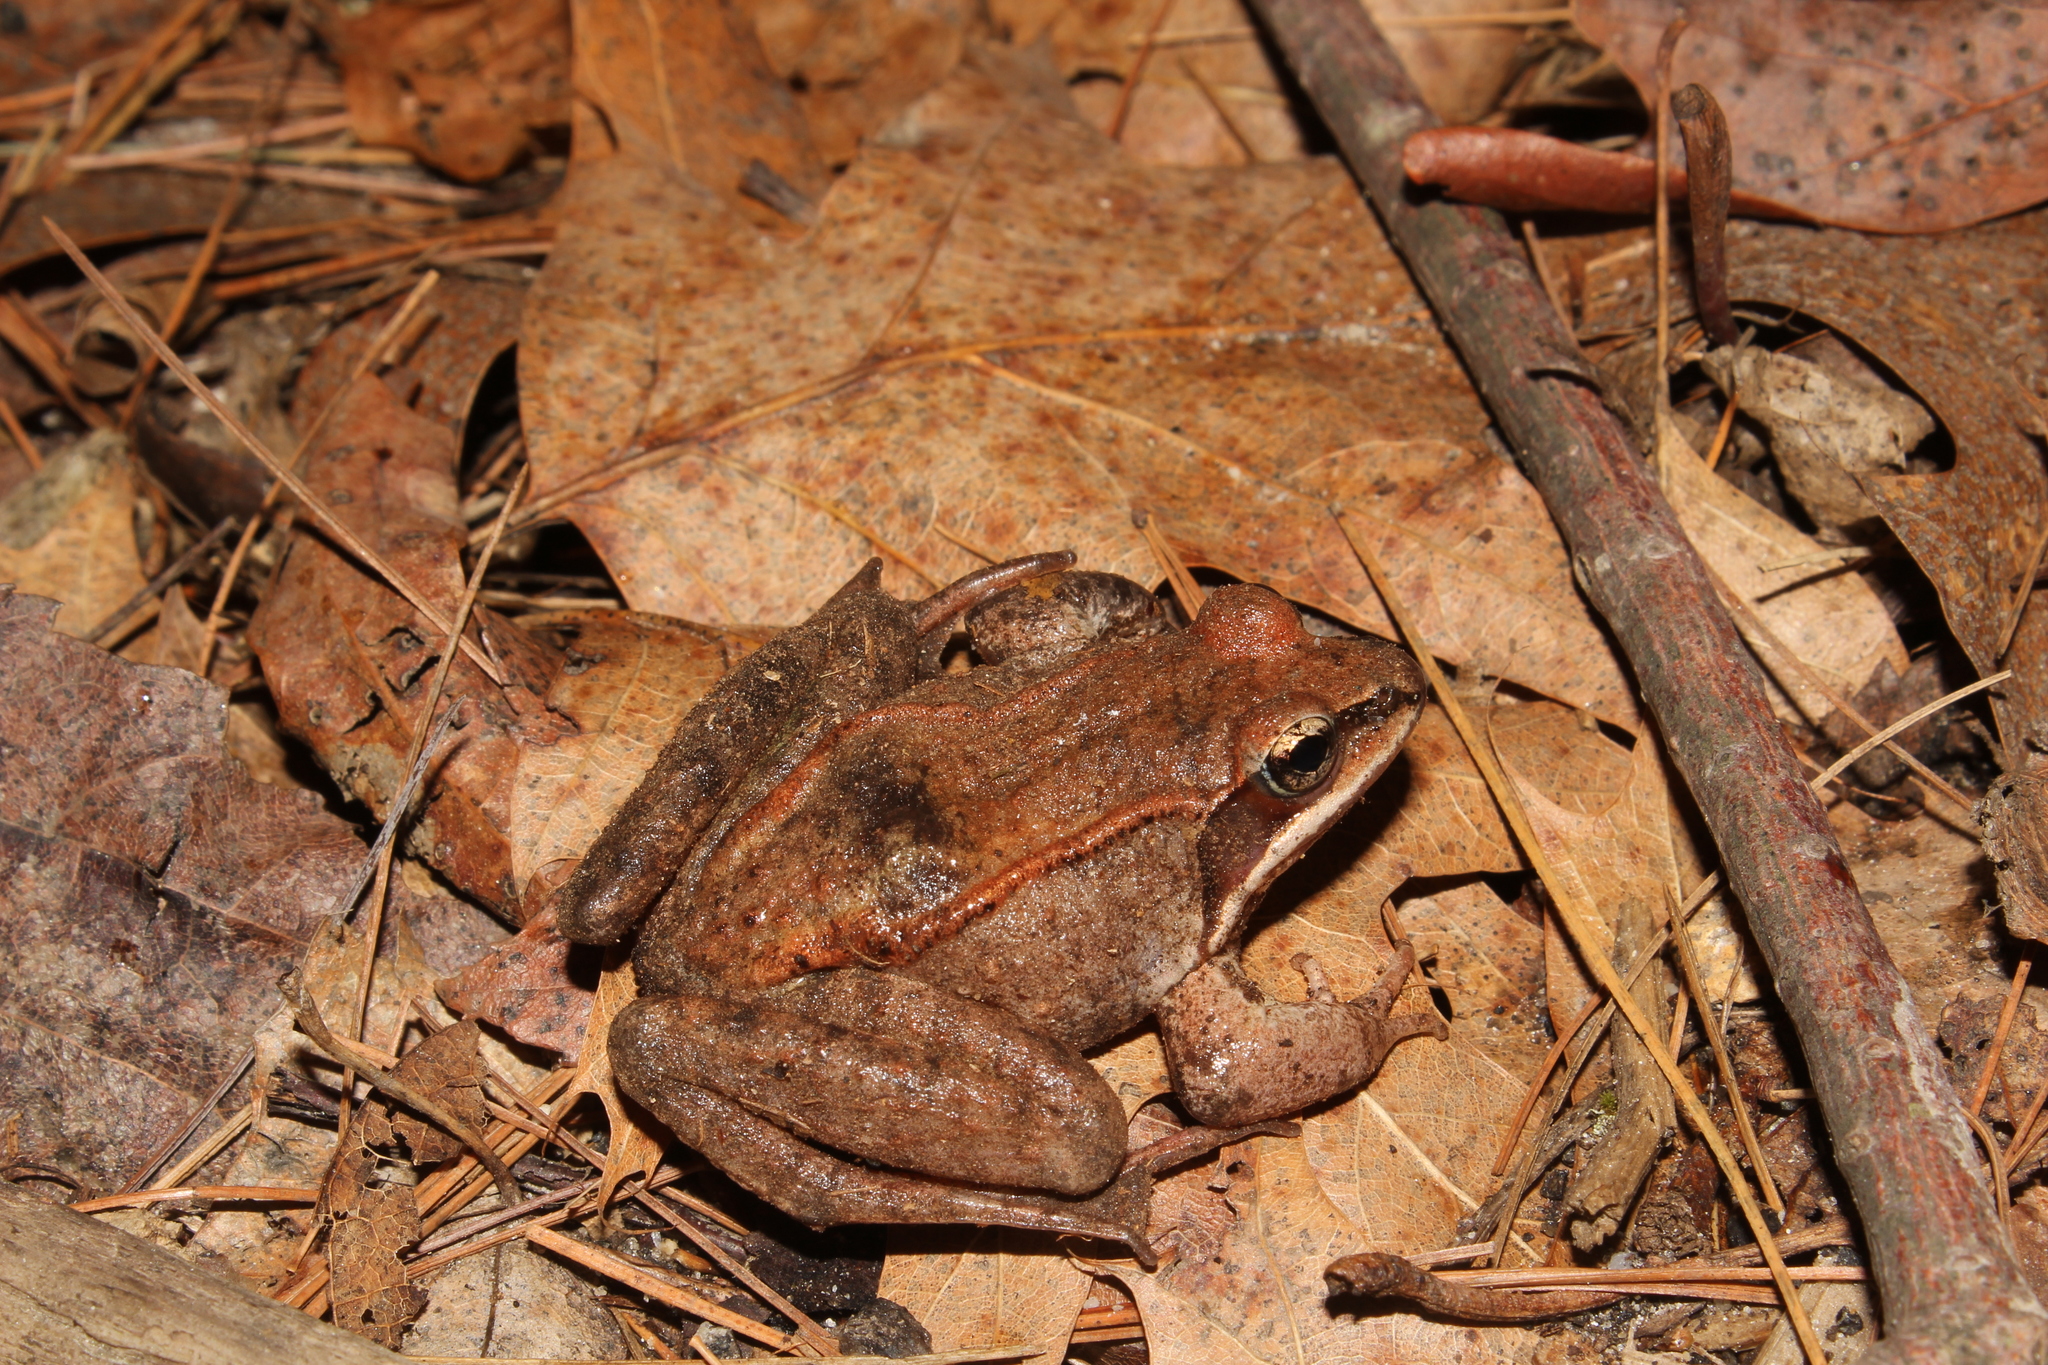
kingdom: Animalia
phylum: Chordata
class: Amphibia
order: Anura
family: Ranidae
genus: Lithobates
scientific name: Lithobates sylvaticus
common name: Wood frog
